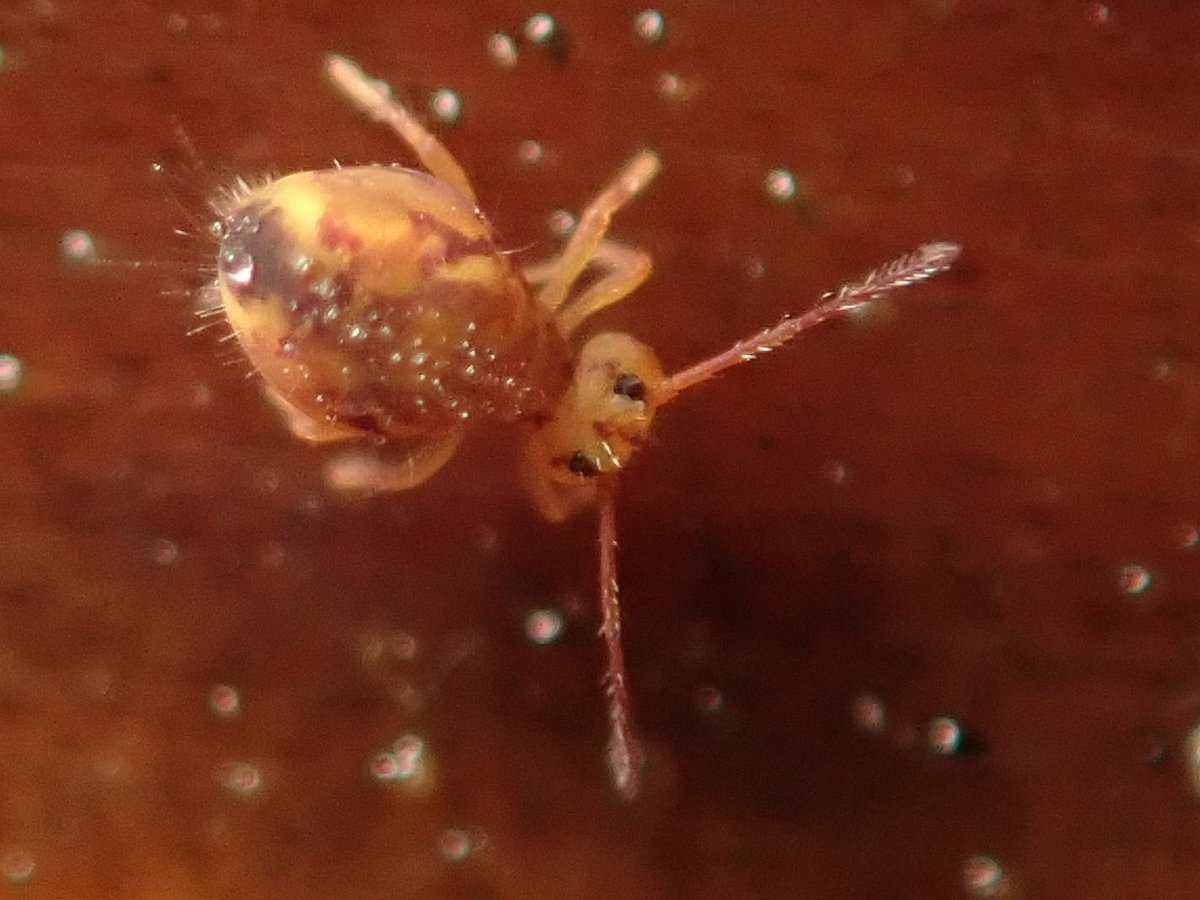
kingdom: Animalia
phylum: Arthropoda
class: Collembola
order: Symphypleona
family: Dicyrtomidae
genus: Dicyrtomina
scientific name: Dicyrtomina ornata
